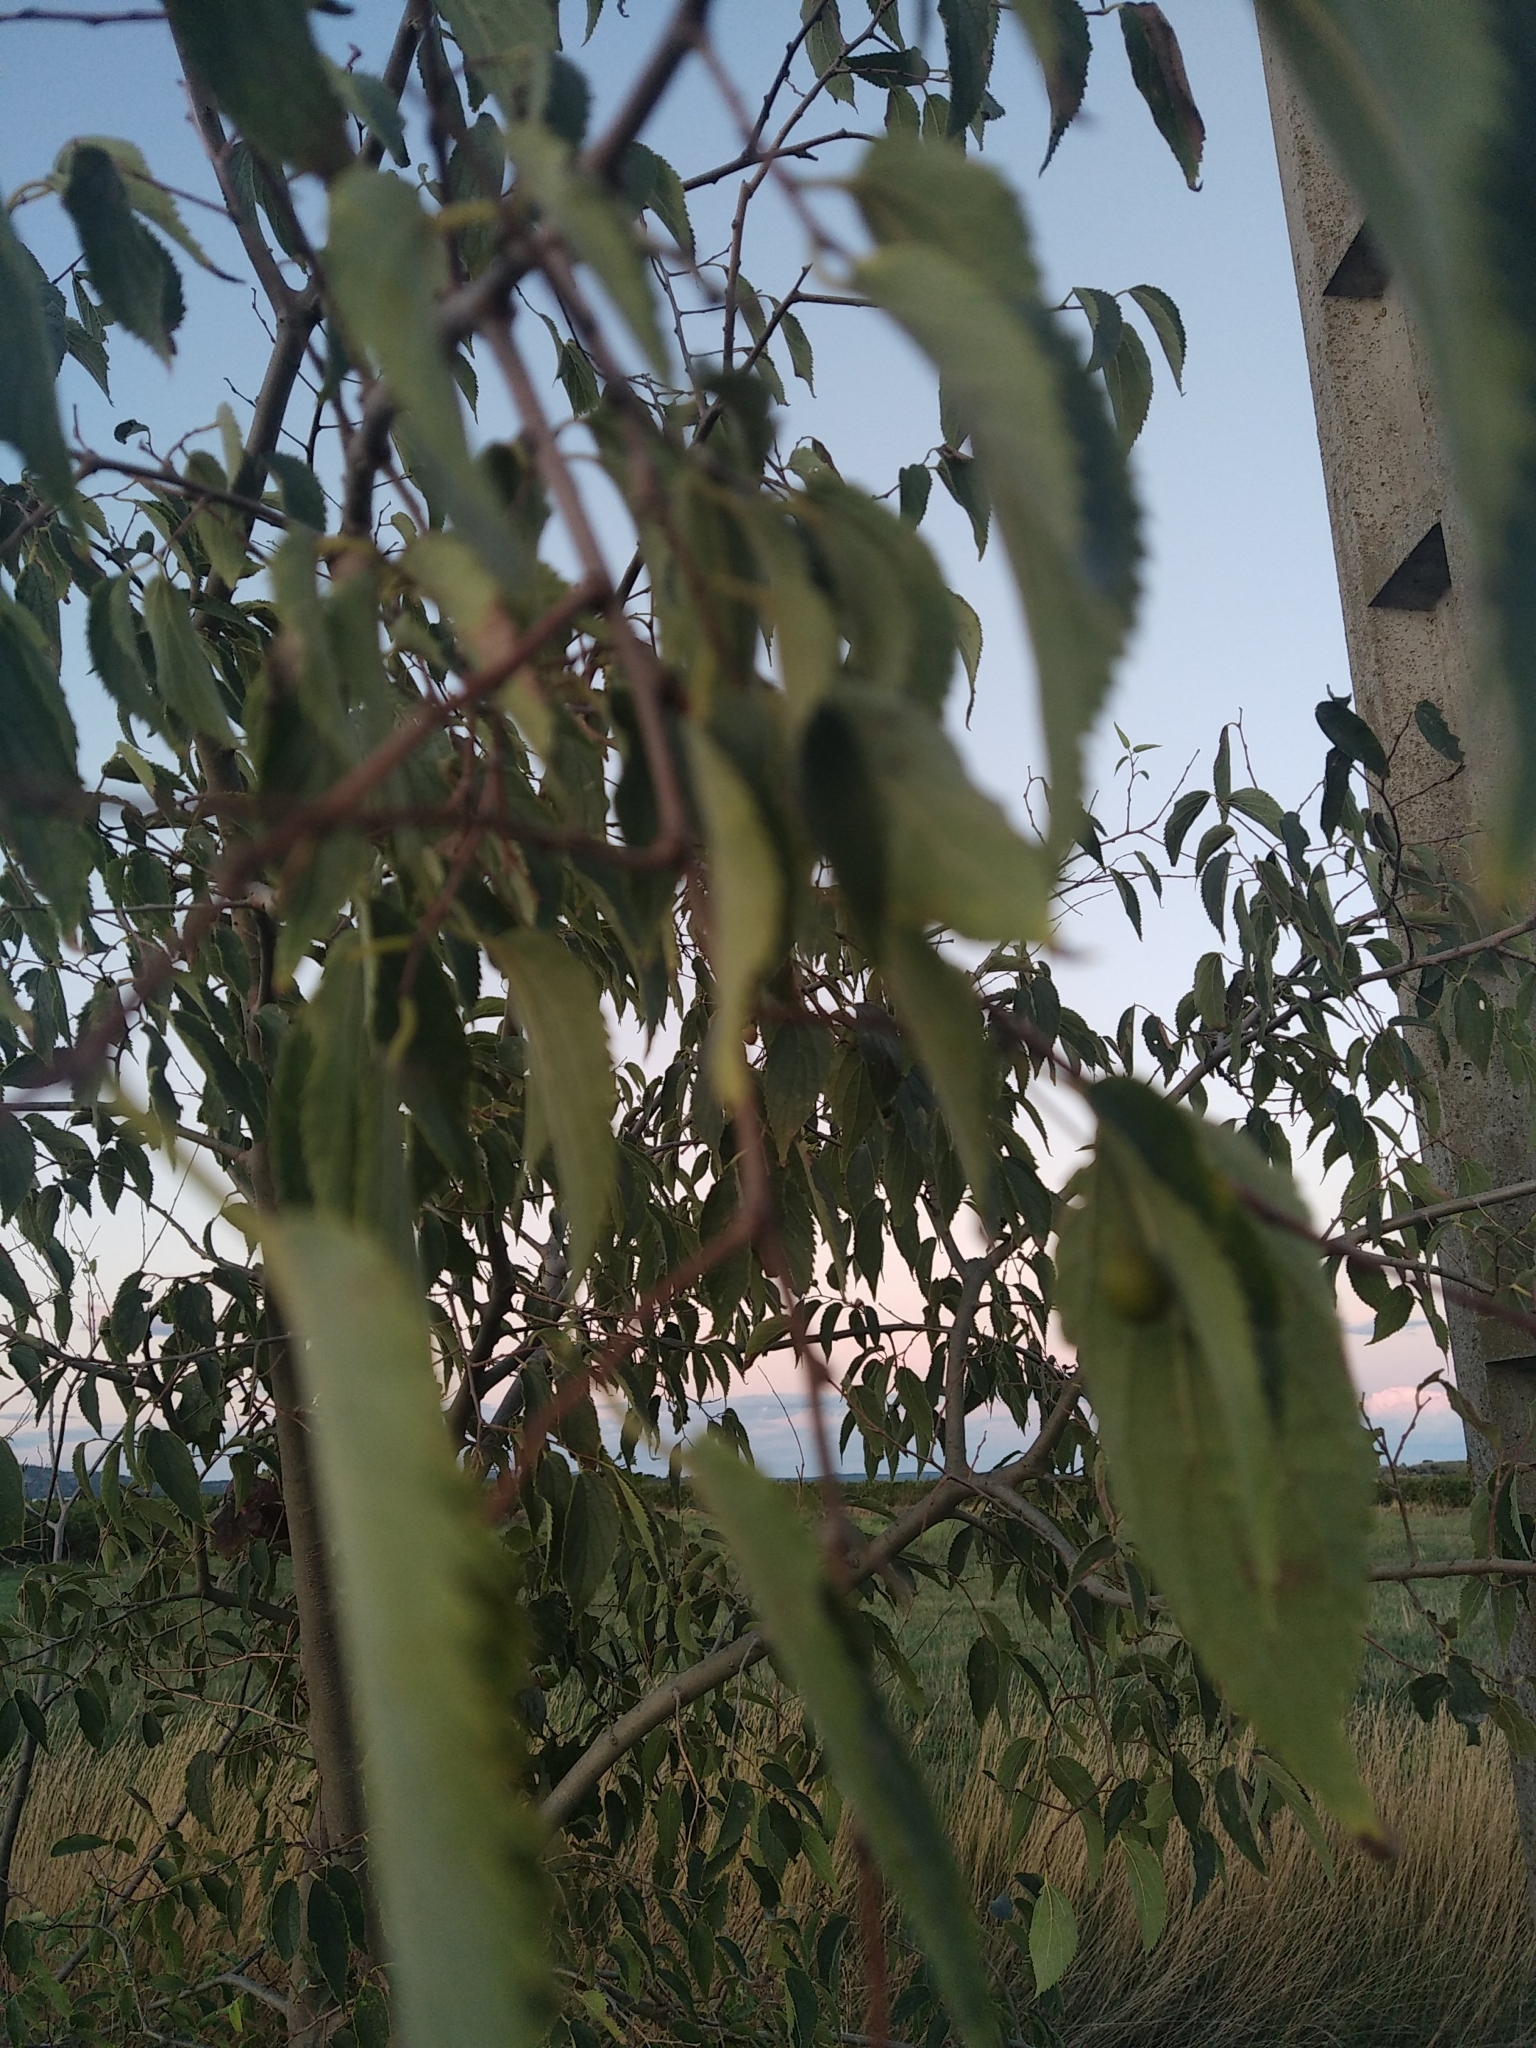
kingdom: Plantae
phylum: Tracheophyta
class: Magnoliopsida
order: Rosales
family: Cannabaceae
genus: Celtis
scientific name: Celtis australis
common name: European hackberry
